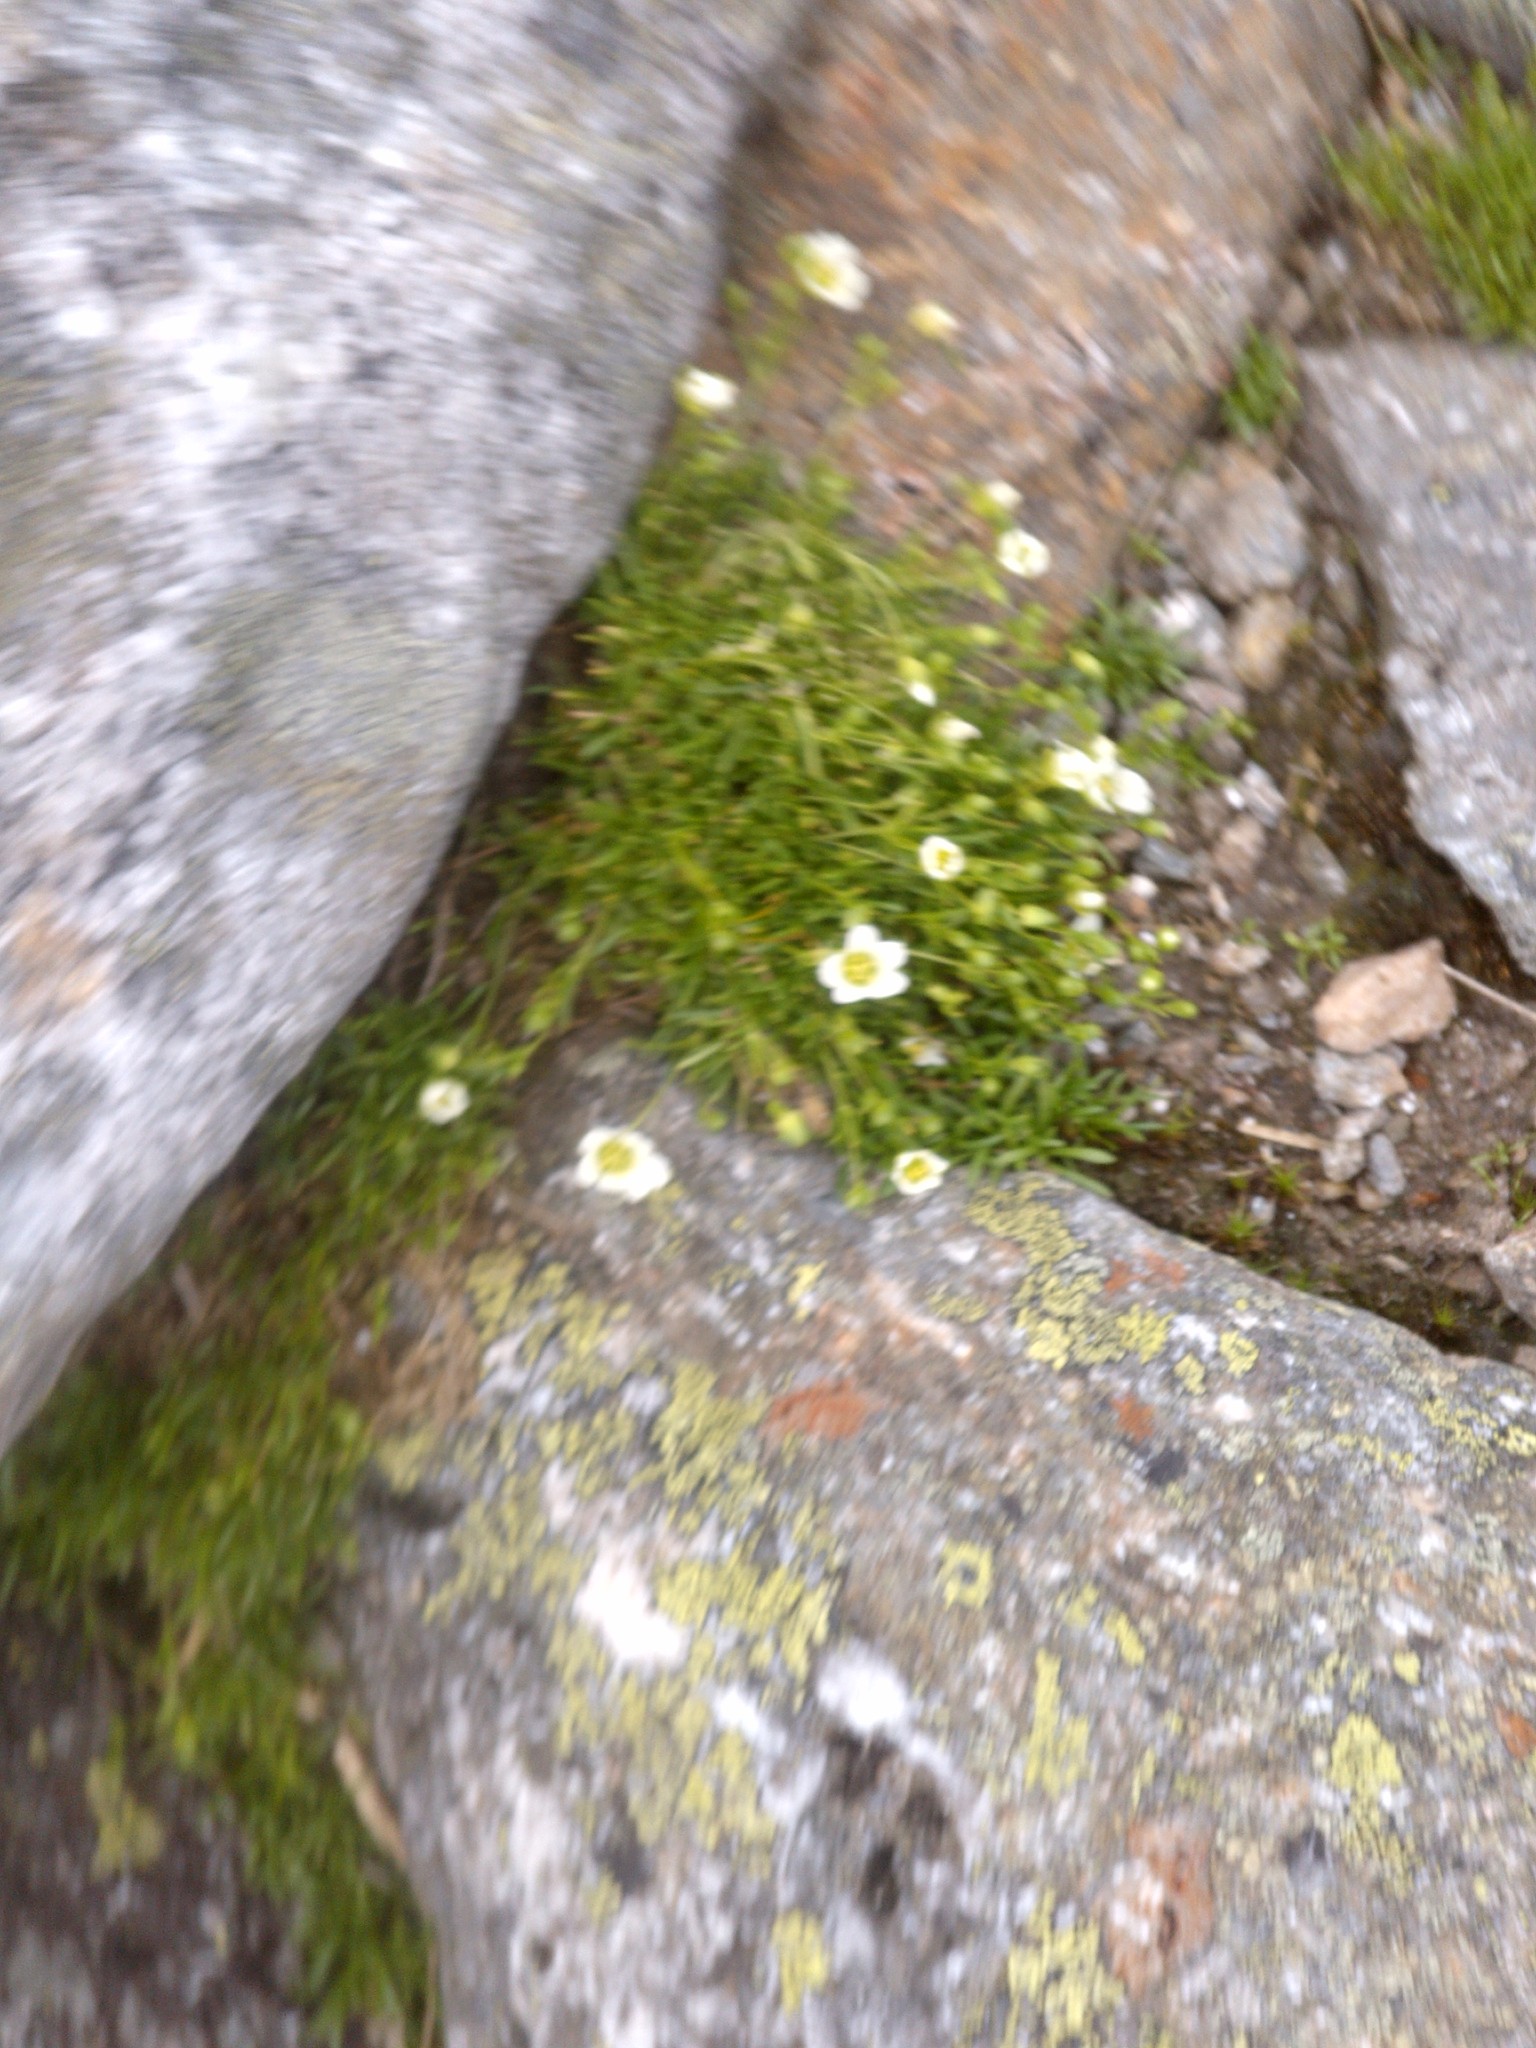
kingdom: Plantae
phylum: Tracheophyta
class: Magnoliopsida
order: Caryophyllales
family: Caryophyllaceae
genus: Geocarpon
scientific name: Geocarpon groenlandicum
